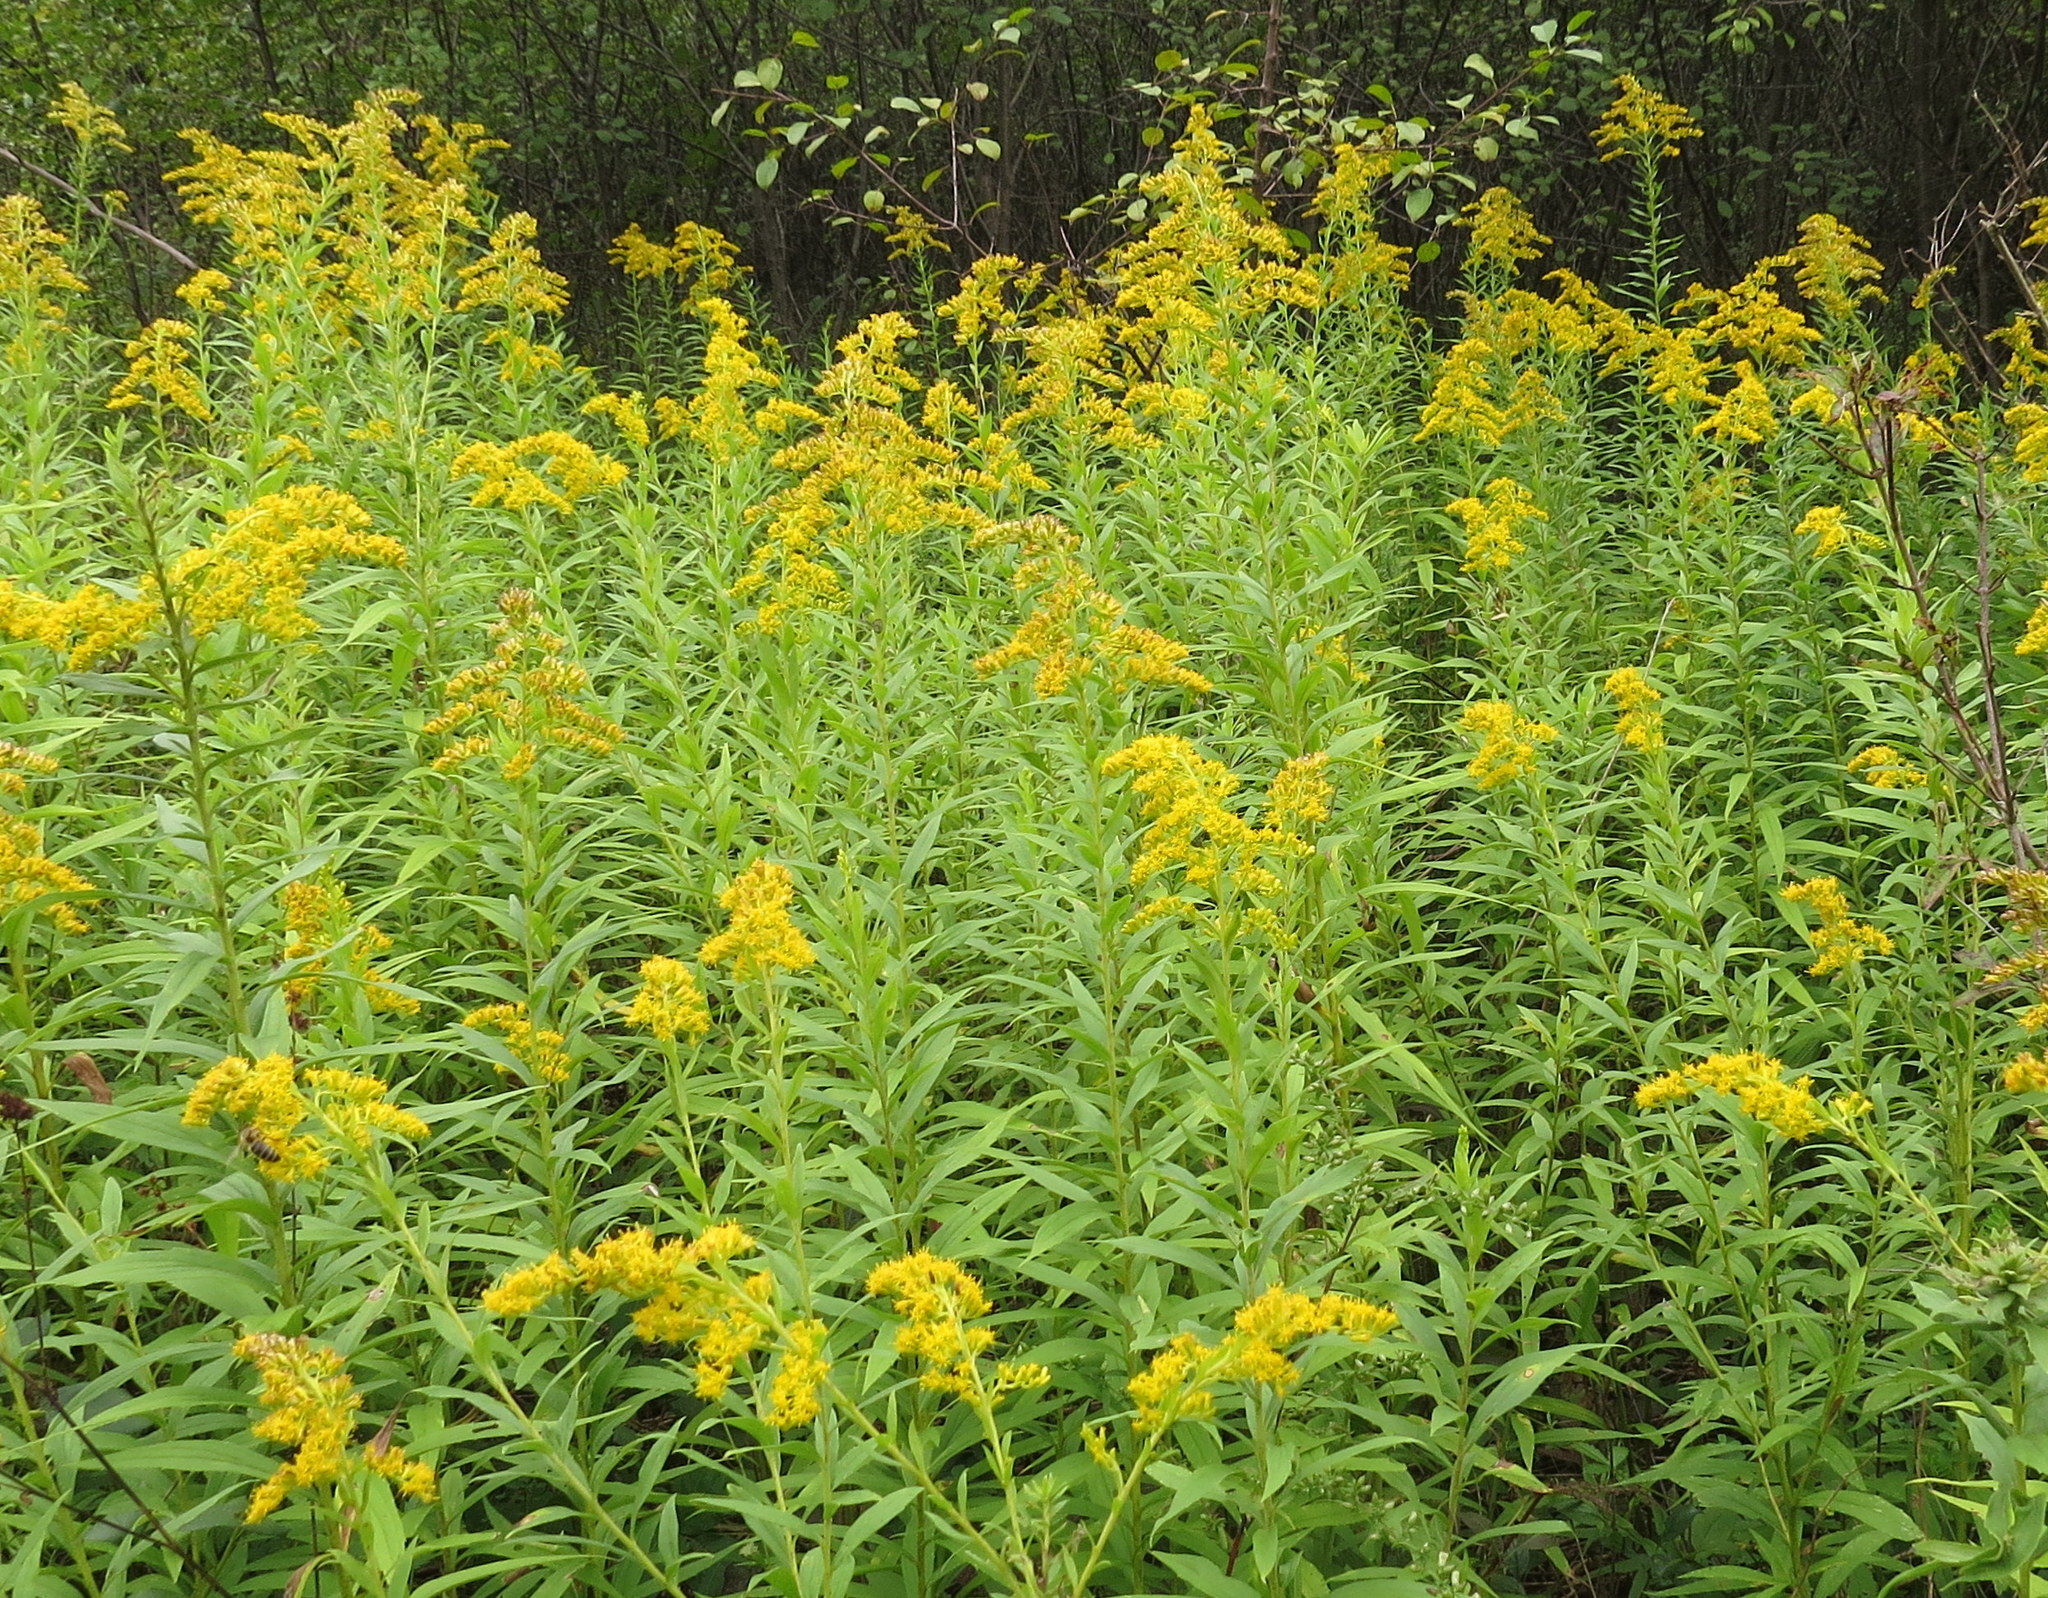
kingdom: Plantae
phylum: Tracheophyta
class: Magnoliopsida
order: Asterales
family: Asteraceae
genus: Solidago
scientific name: Solidago canadensis
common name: Canada goldenrod
